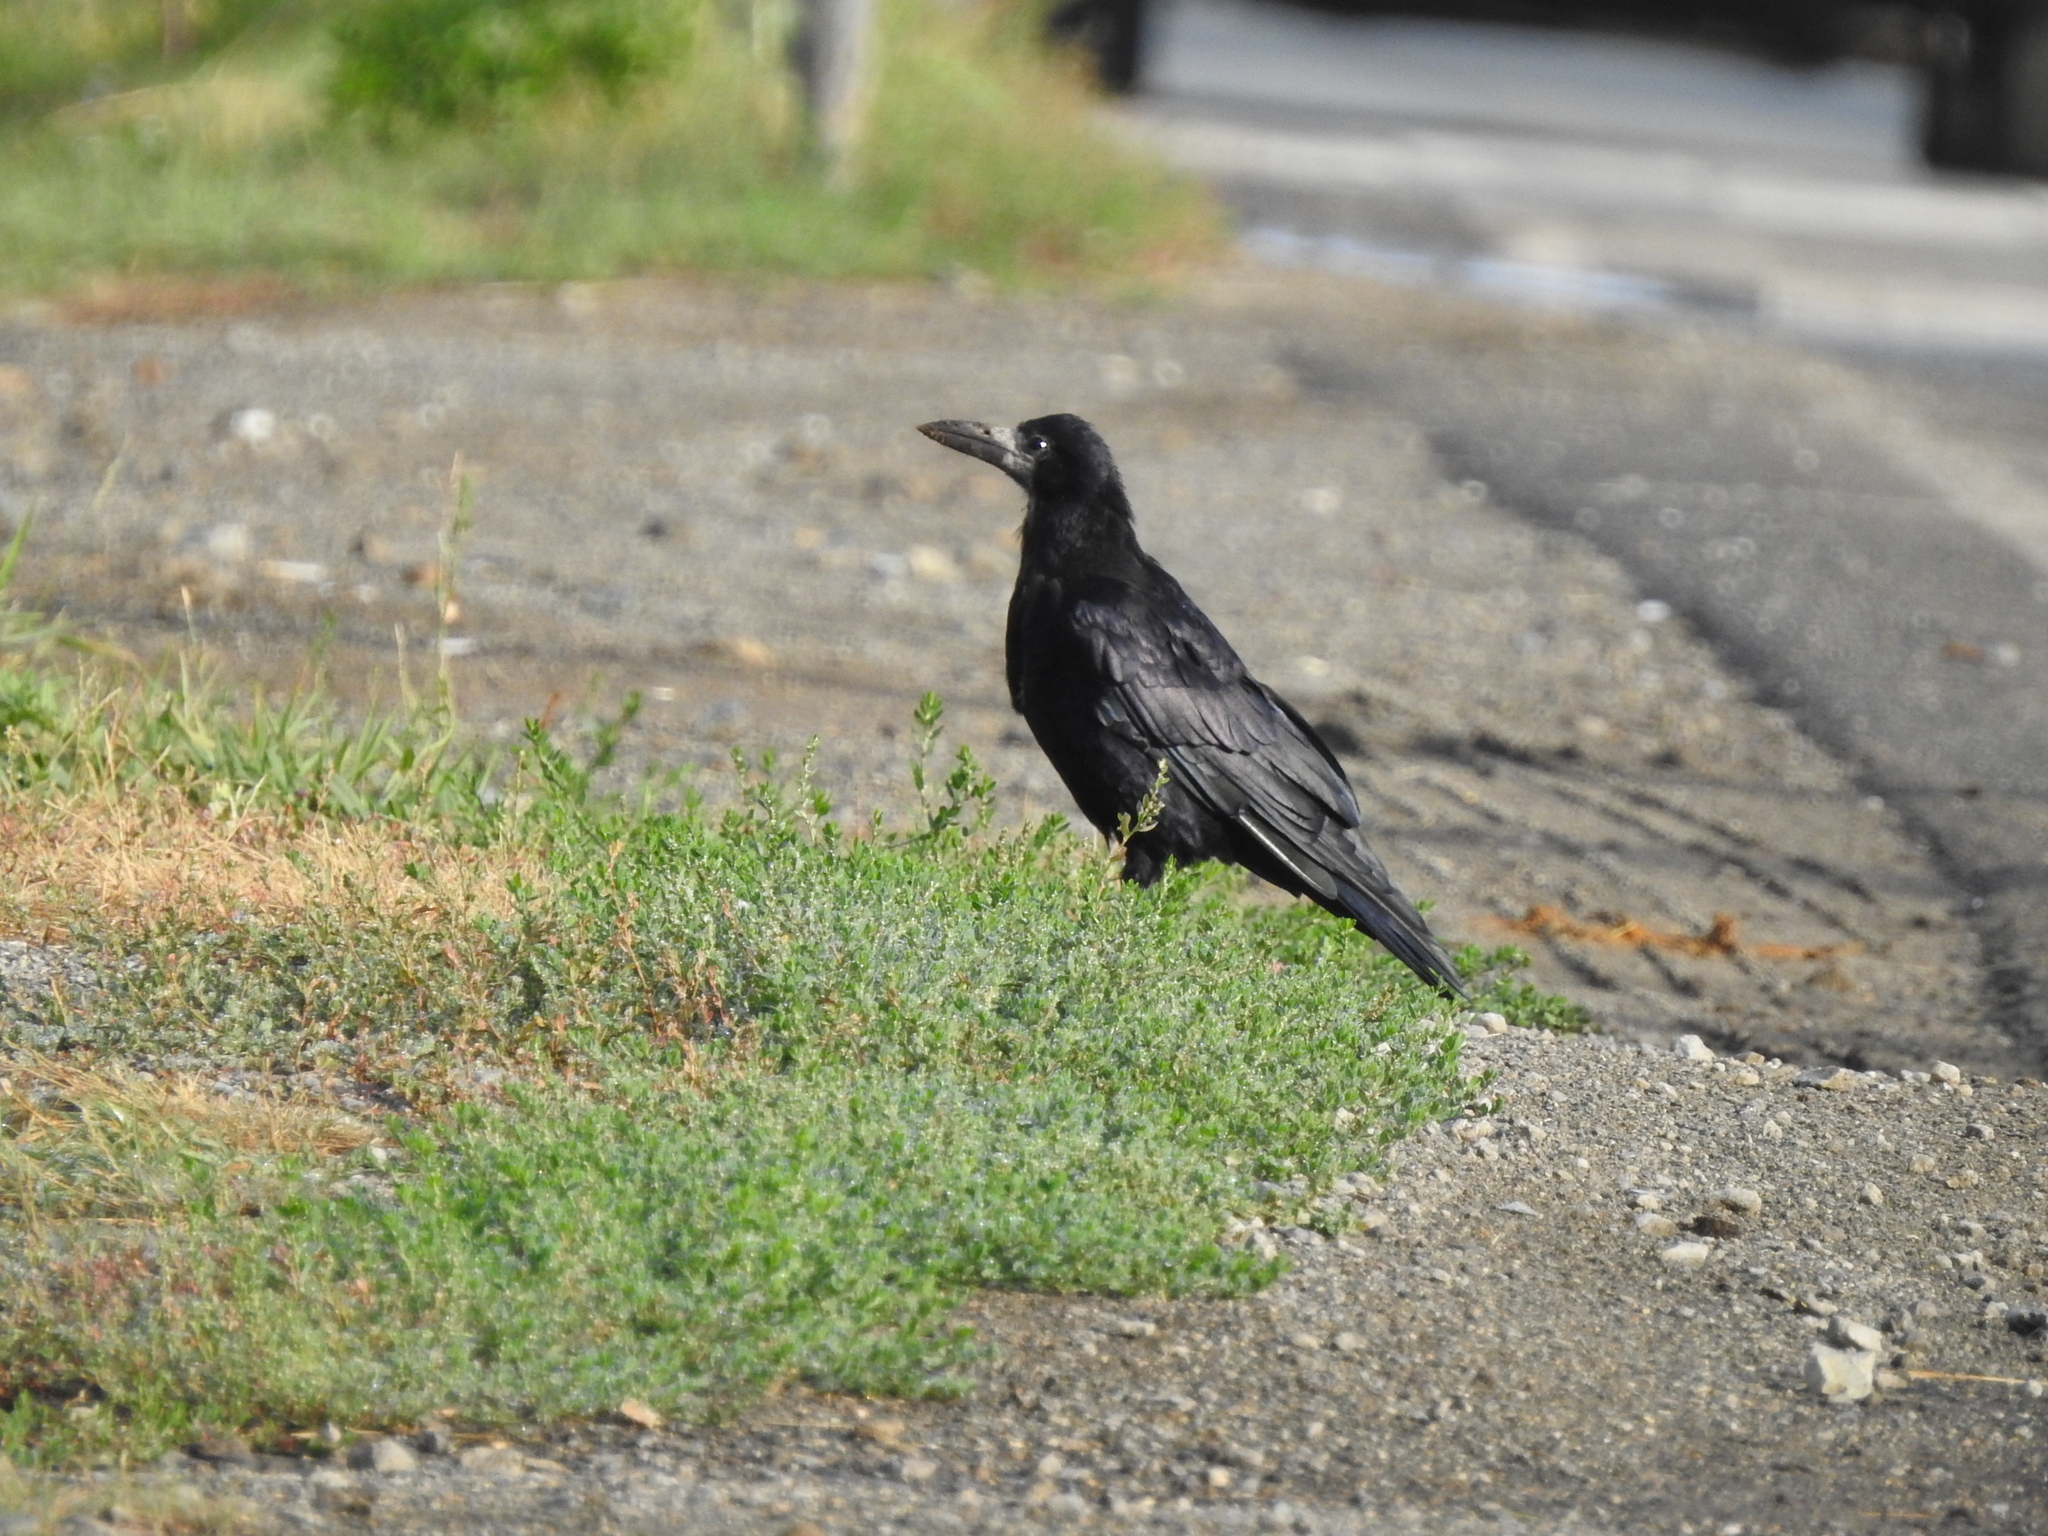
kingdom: Animalia
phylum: Chordata
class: Aves
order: Passeriformes
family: Corvidae
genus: Corvus
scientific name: Corvus frugilegus
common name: Rook
